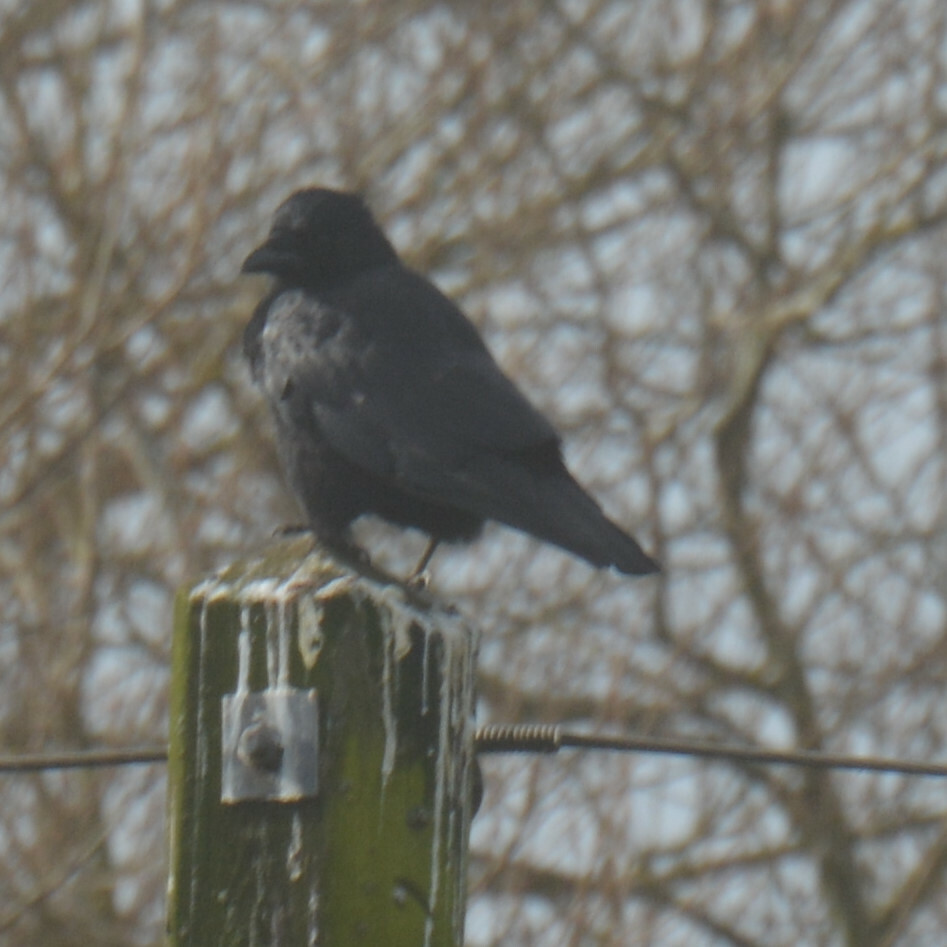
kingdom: Animalia
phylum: Chordata
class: Aves
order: Passeriformes
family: Corvidae
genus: Corvus
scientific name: Corvus corone
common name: Carrion crow
